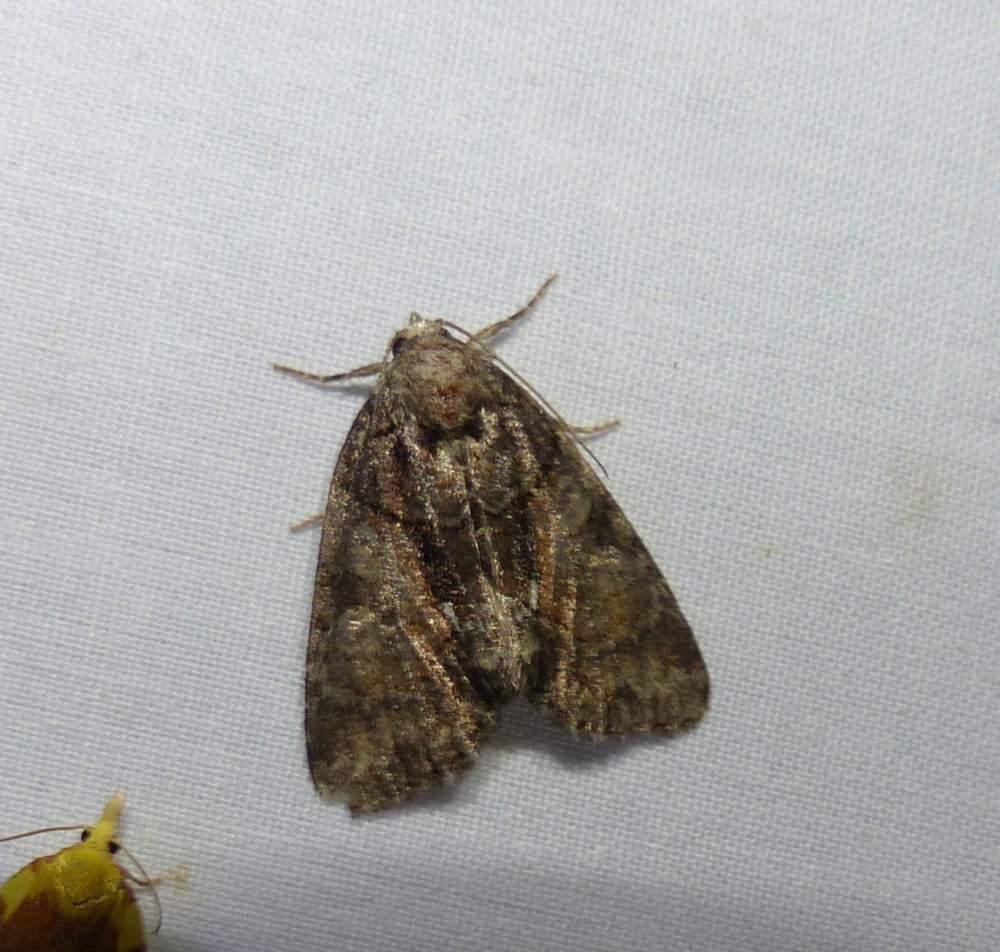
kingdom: Animalia
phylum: Arthropoda
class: Insecta
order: Lepidoptera
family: Noctuidae
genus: Chytonix
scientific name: Chytonix palliatricula
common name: Cloaked marvel
